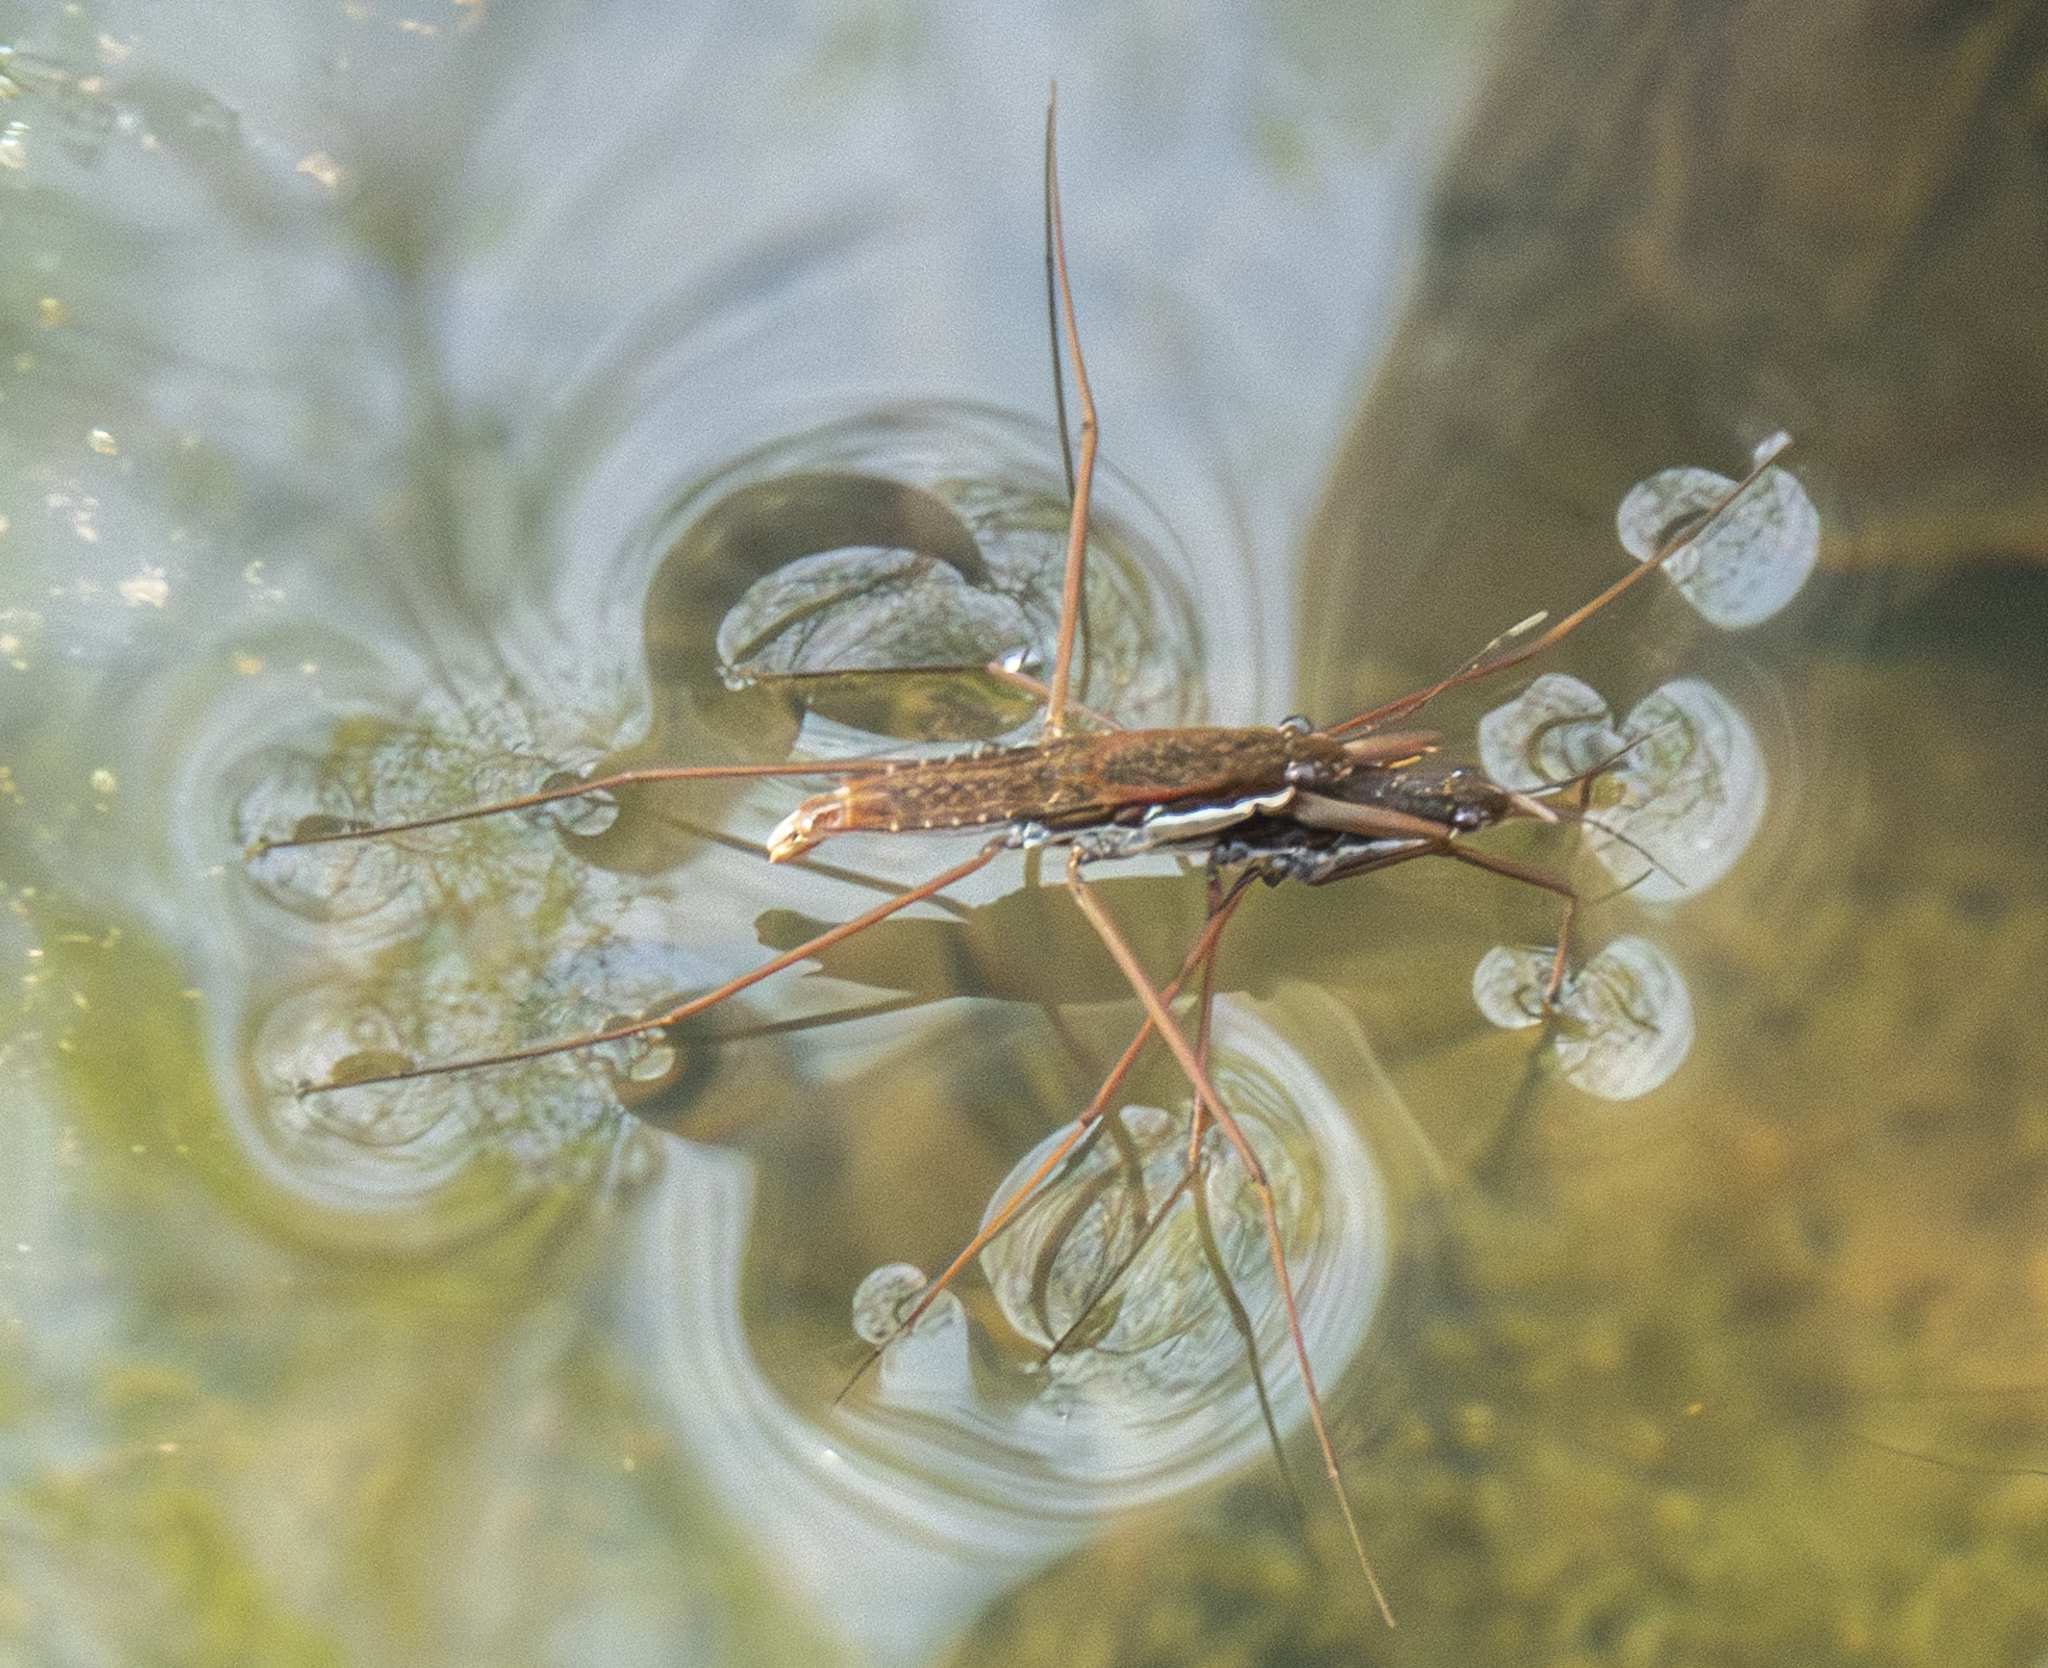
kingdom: Animalia
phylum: Arthropoda
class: Insecta
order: Hemiptera
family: Gerridae
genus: Aquarius
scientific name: Aquarius remigis
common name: Common water strider
